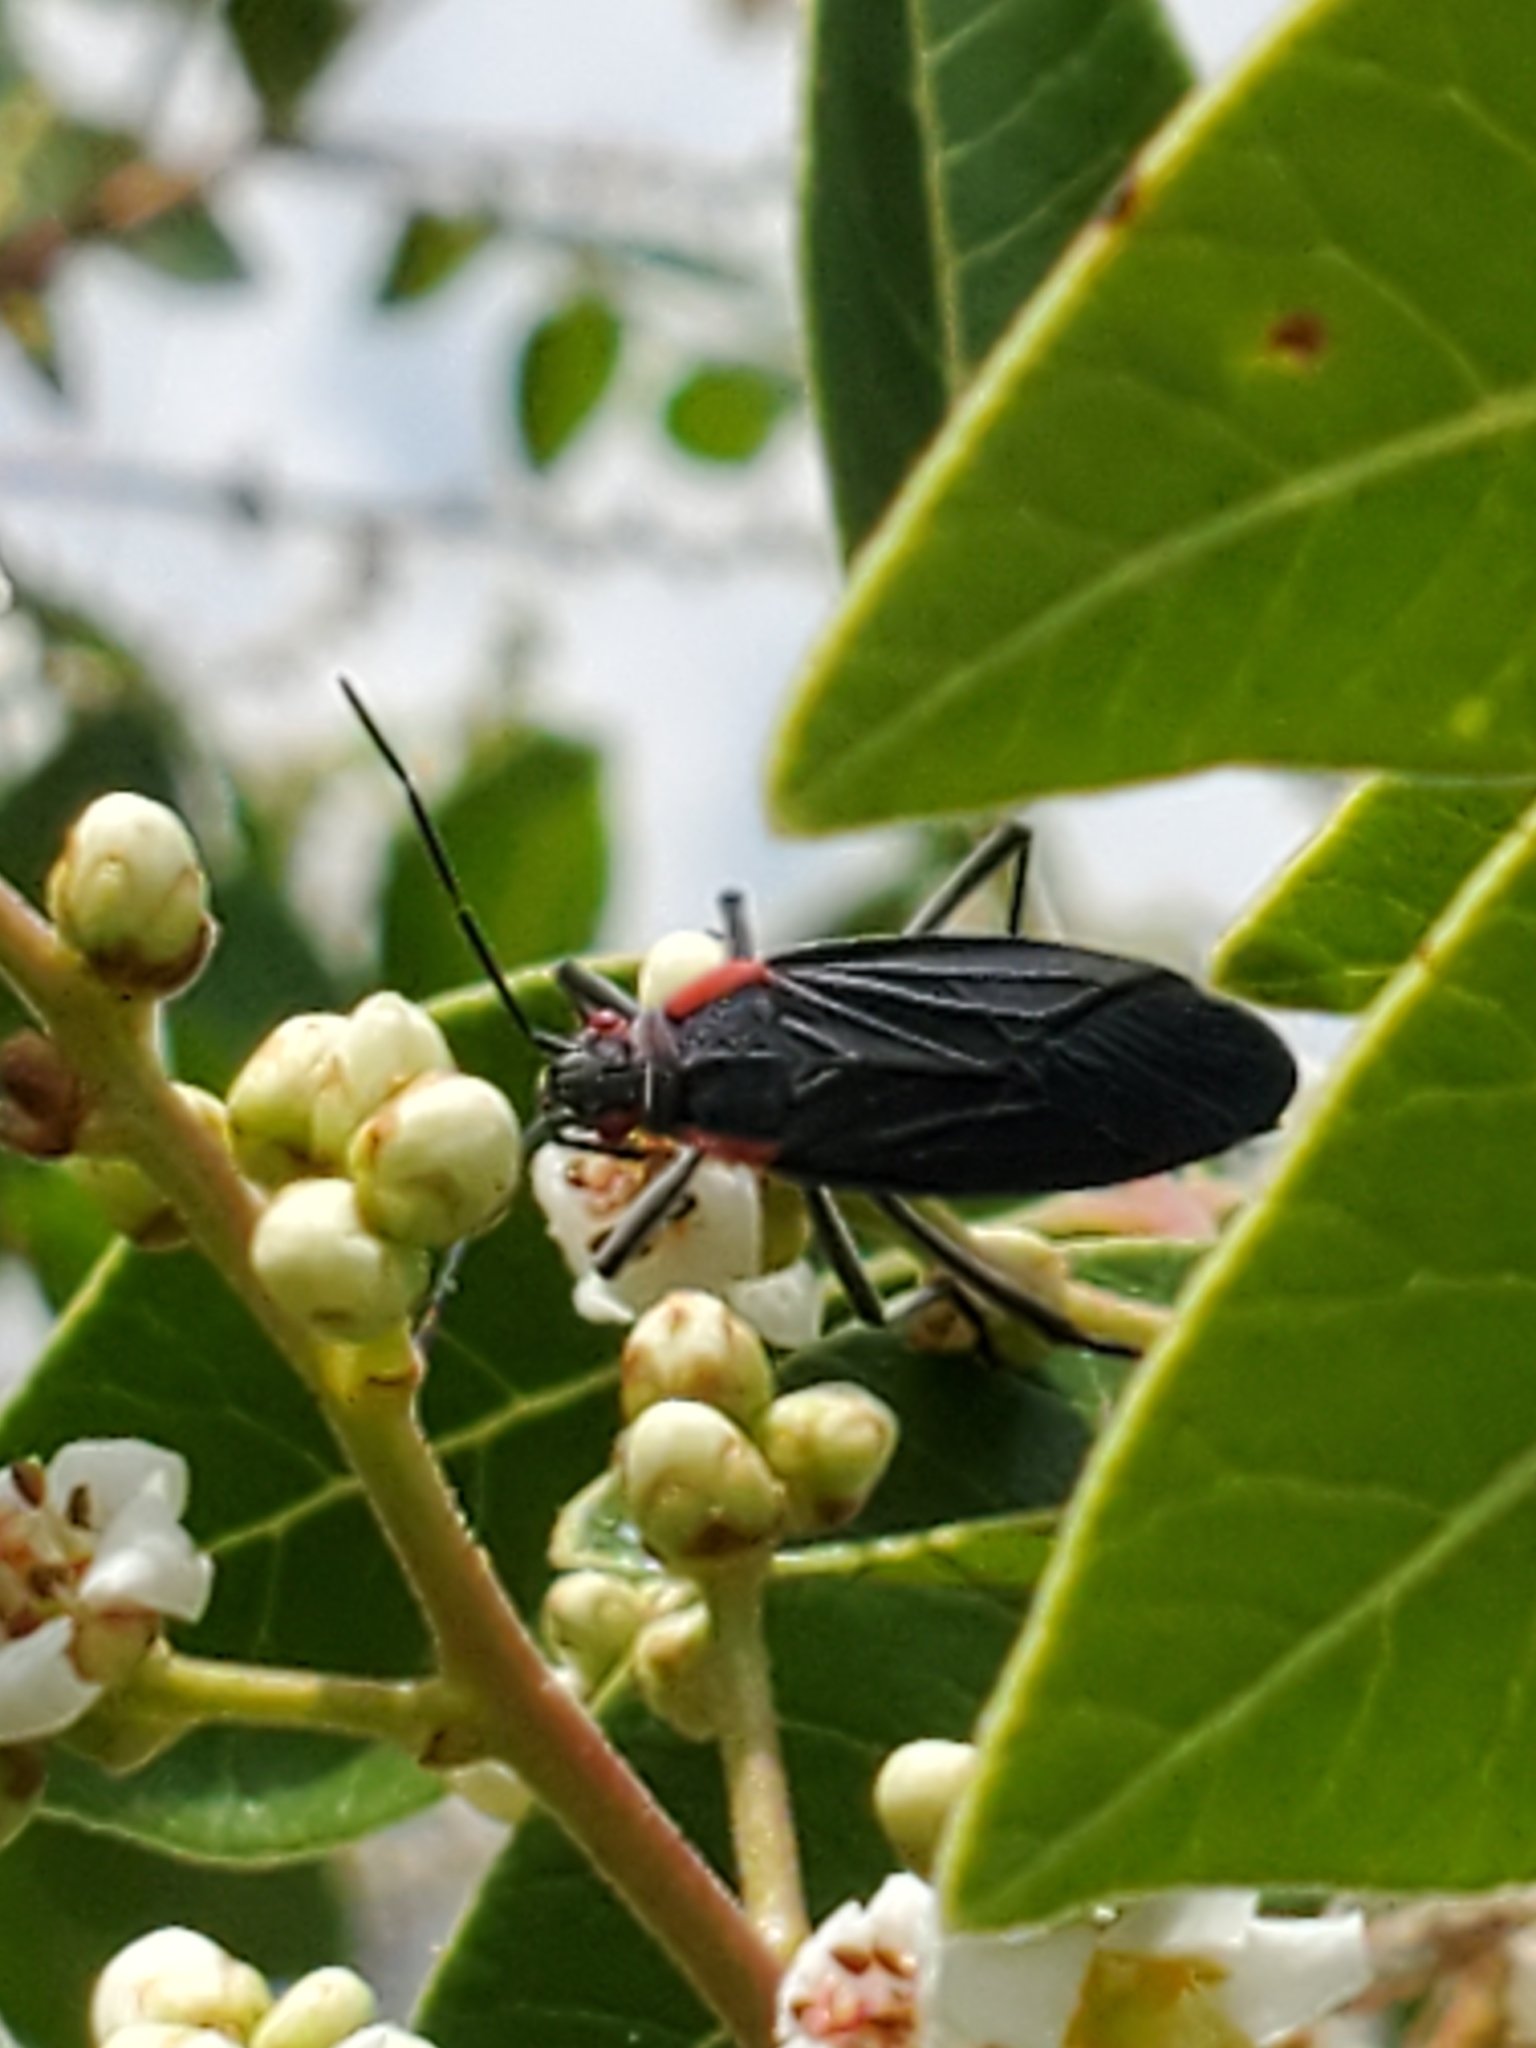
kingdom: Animalia
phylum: Arthropoda
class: Insecta
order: Hemiptera
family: Rhopalidae
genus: Jadera
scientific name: Jadera haematoloma
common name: Red-shouldered bug
